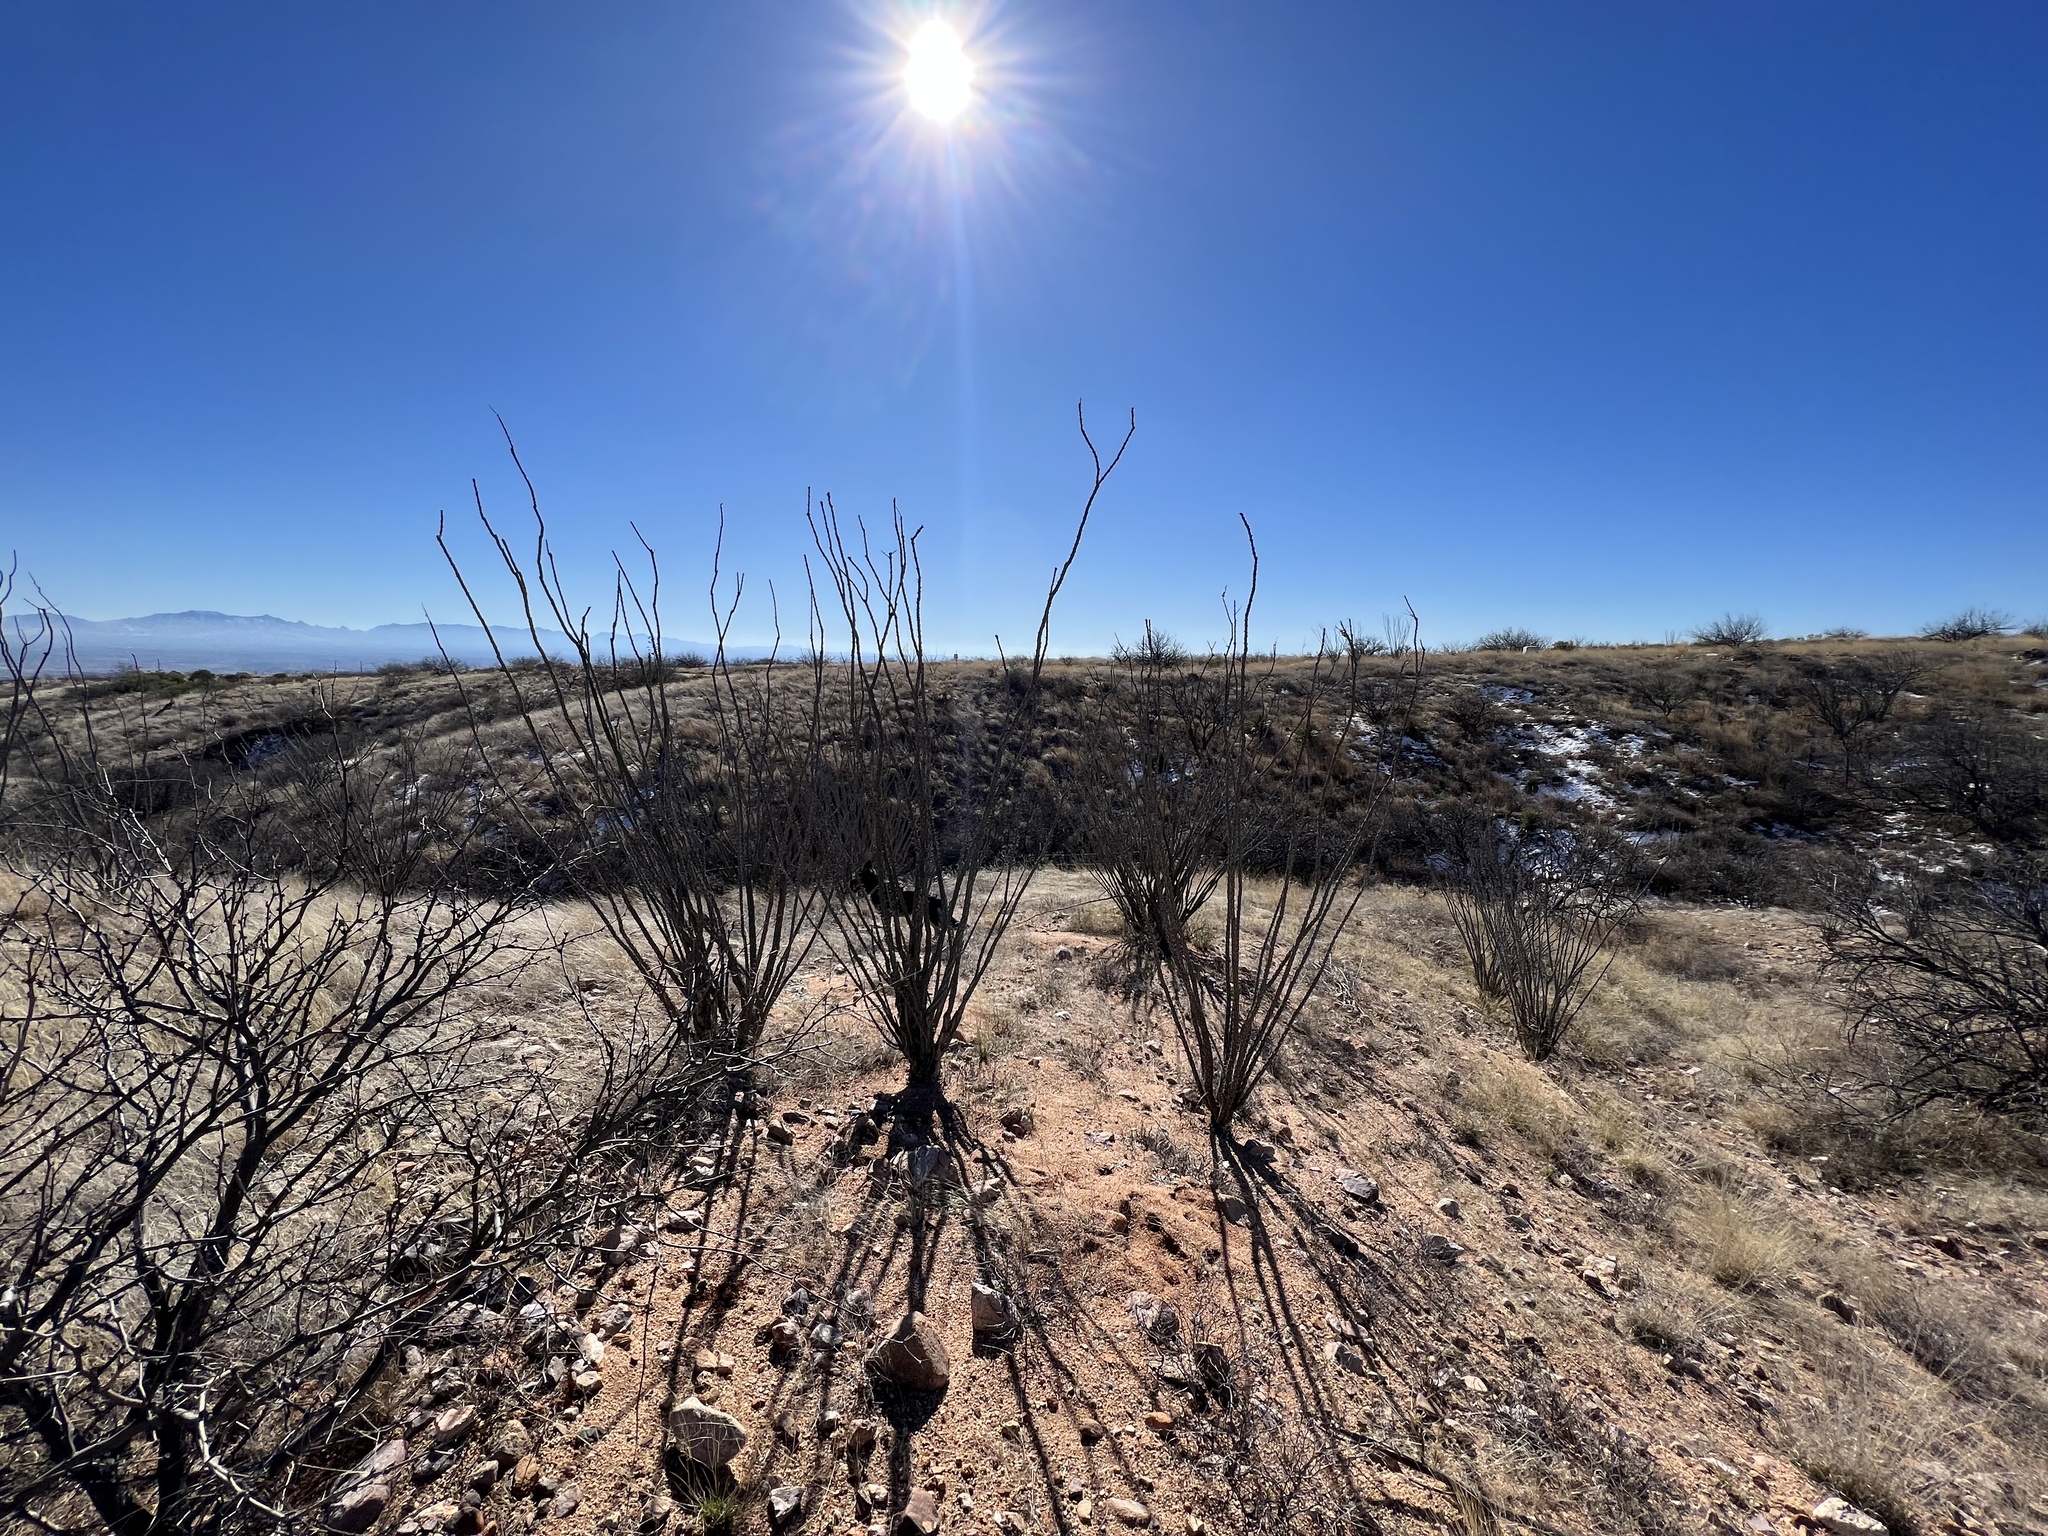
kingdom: Plantae
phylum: Tracheophyta
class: Magnoliopsida
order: Ericales
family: Fouquieriaceae
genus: Fouquieria
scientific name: Fouquieria splendens
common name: Vine-cactus
